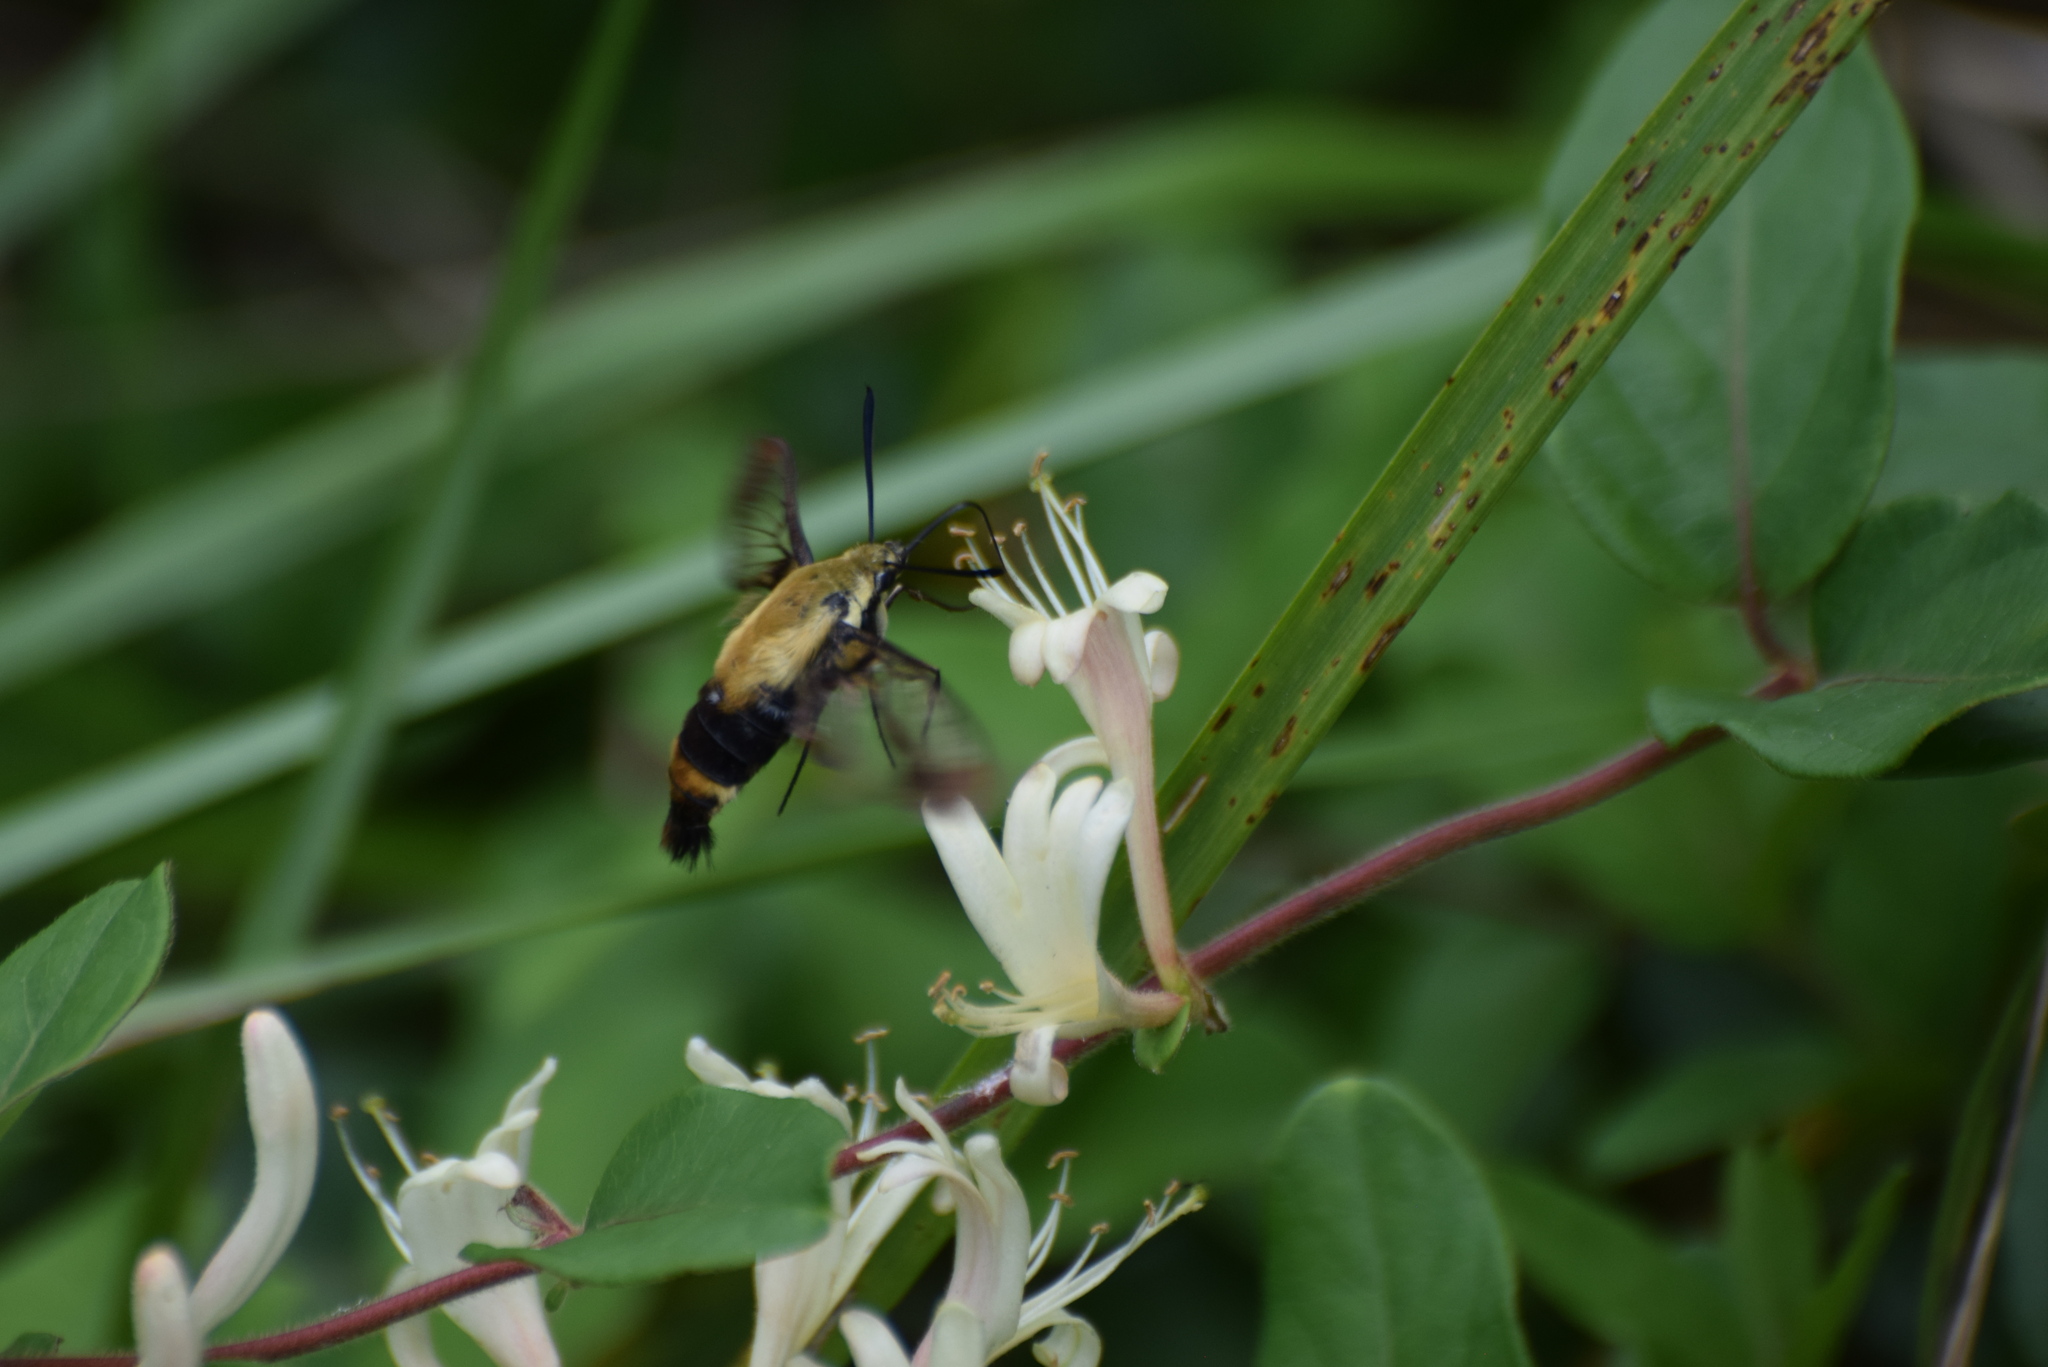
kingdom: Animalia
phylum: Arthropoda
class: Insecta
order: Lepidoptera
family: Sphingidae
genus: Hemaris
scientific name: Hemaris diffinis
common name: Bumblebee moth
